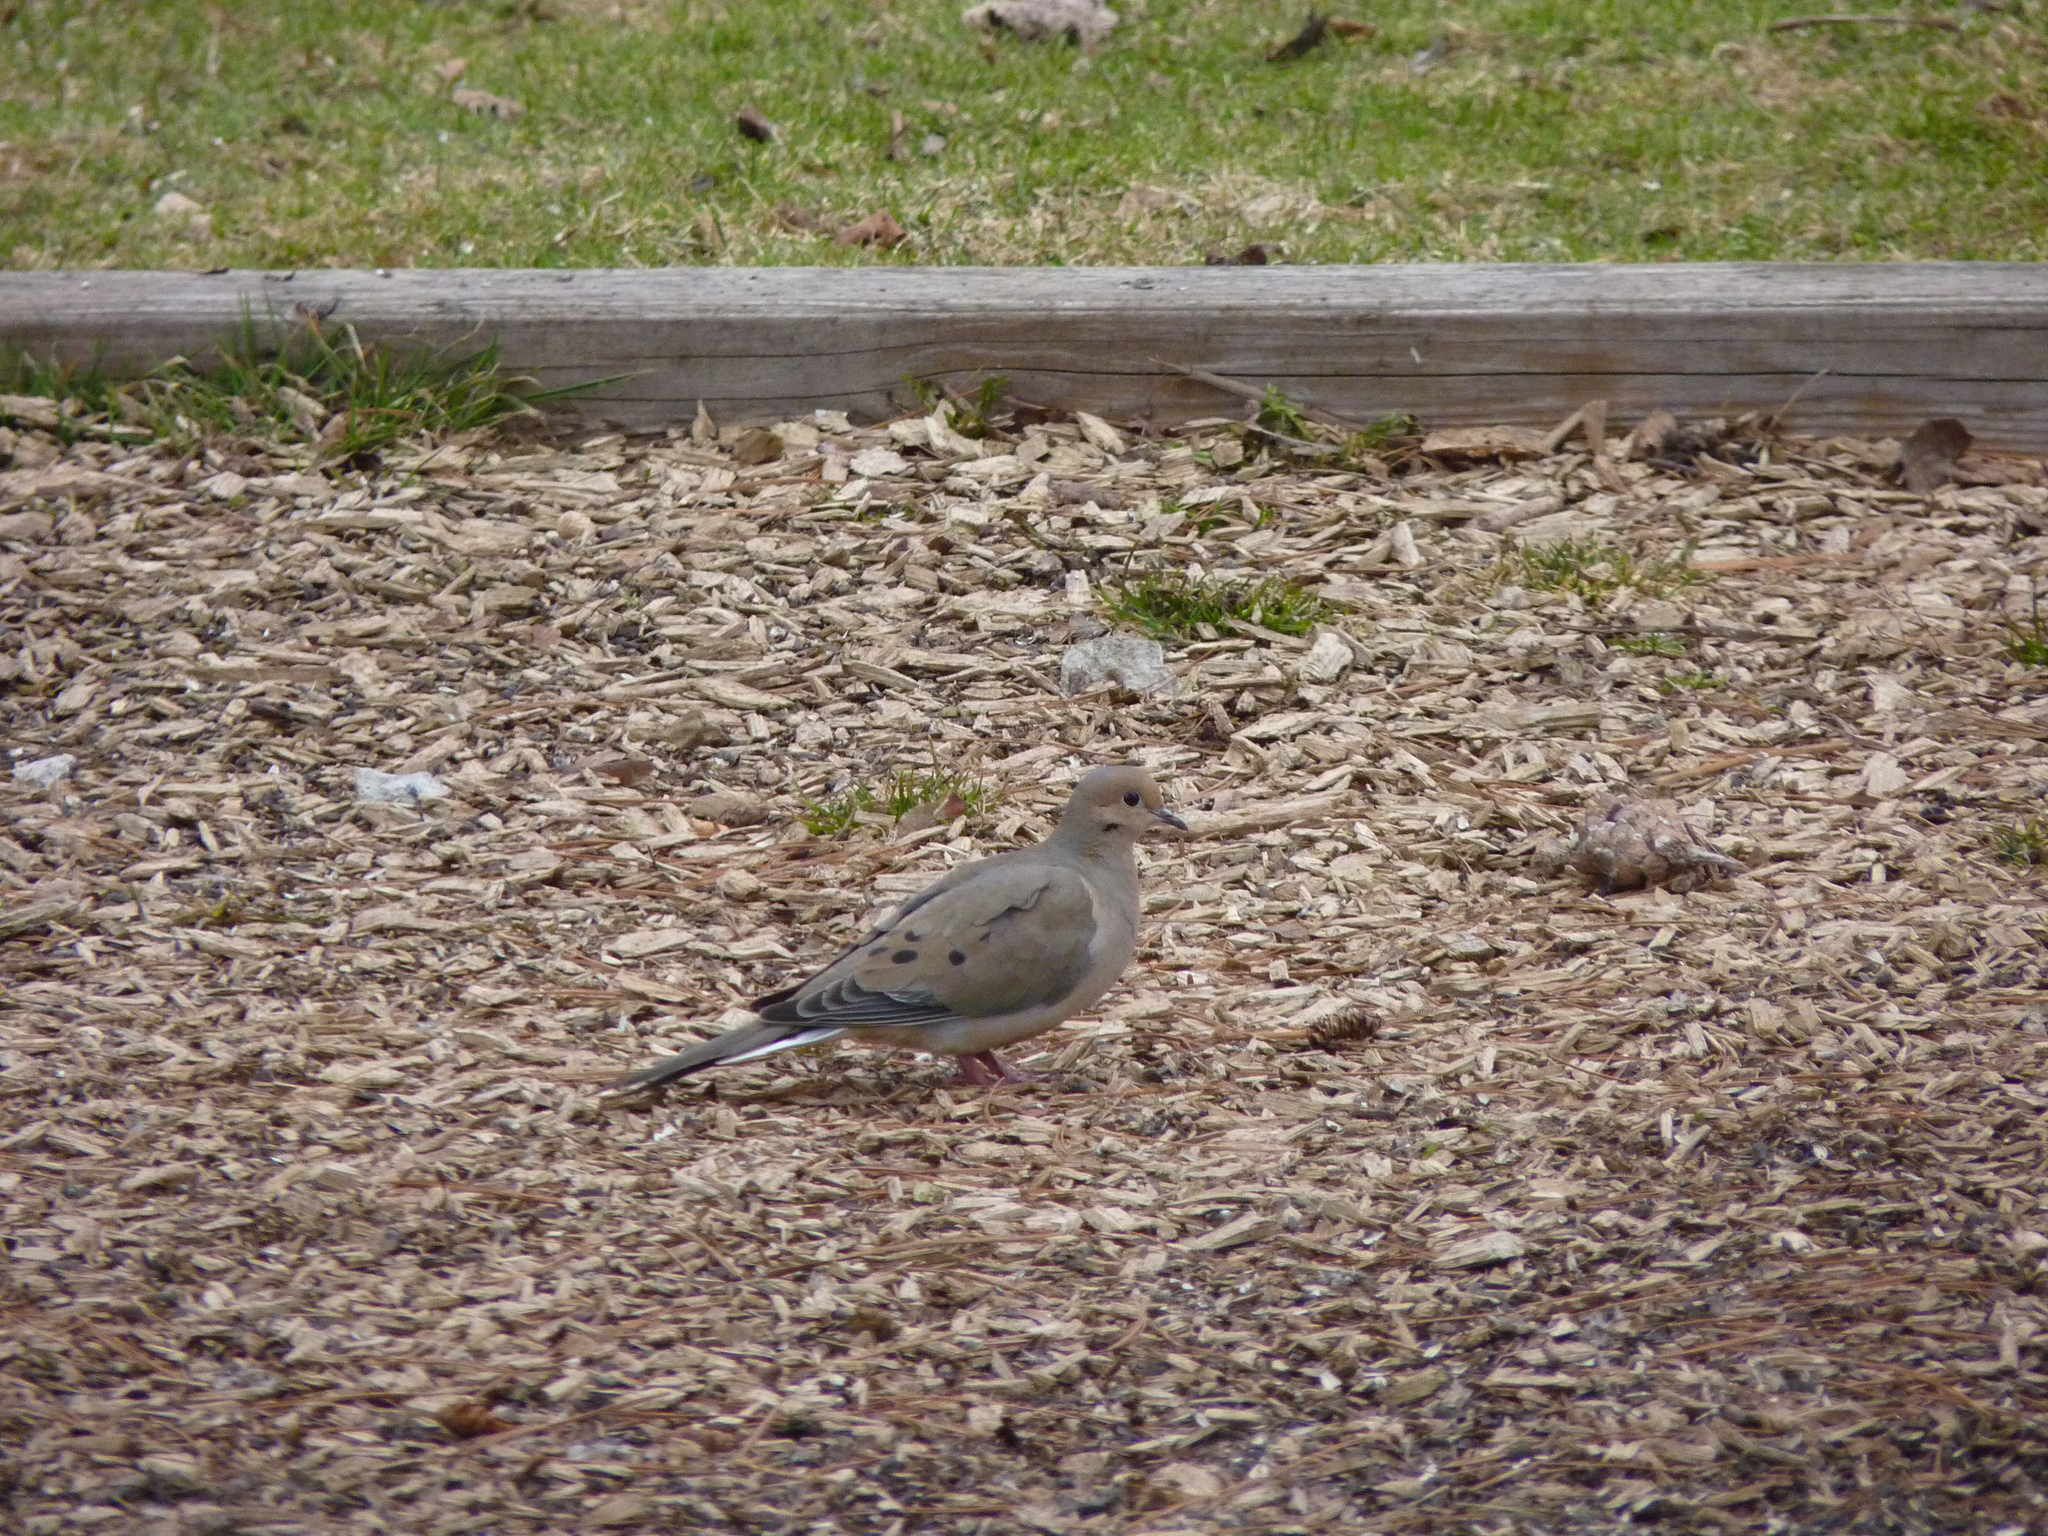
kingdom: Animalia
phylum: Chordata
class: Aves
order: Columbiformes
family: Columbidae
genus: Zenaida
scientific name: Zenaida macroura
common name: Mourning dove
